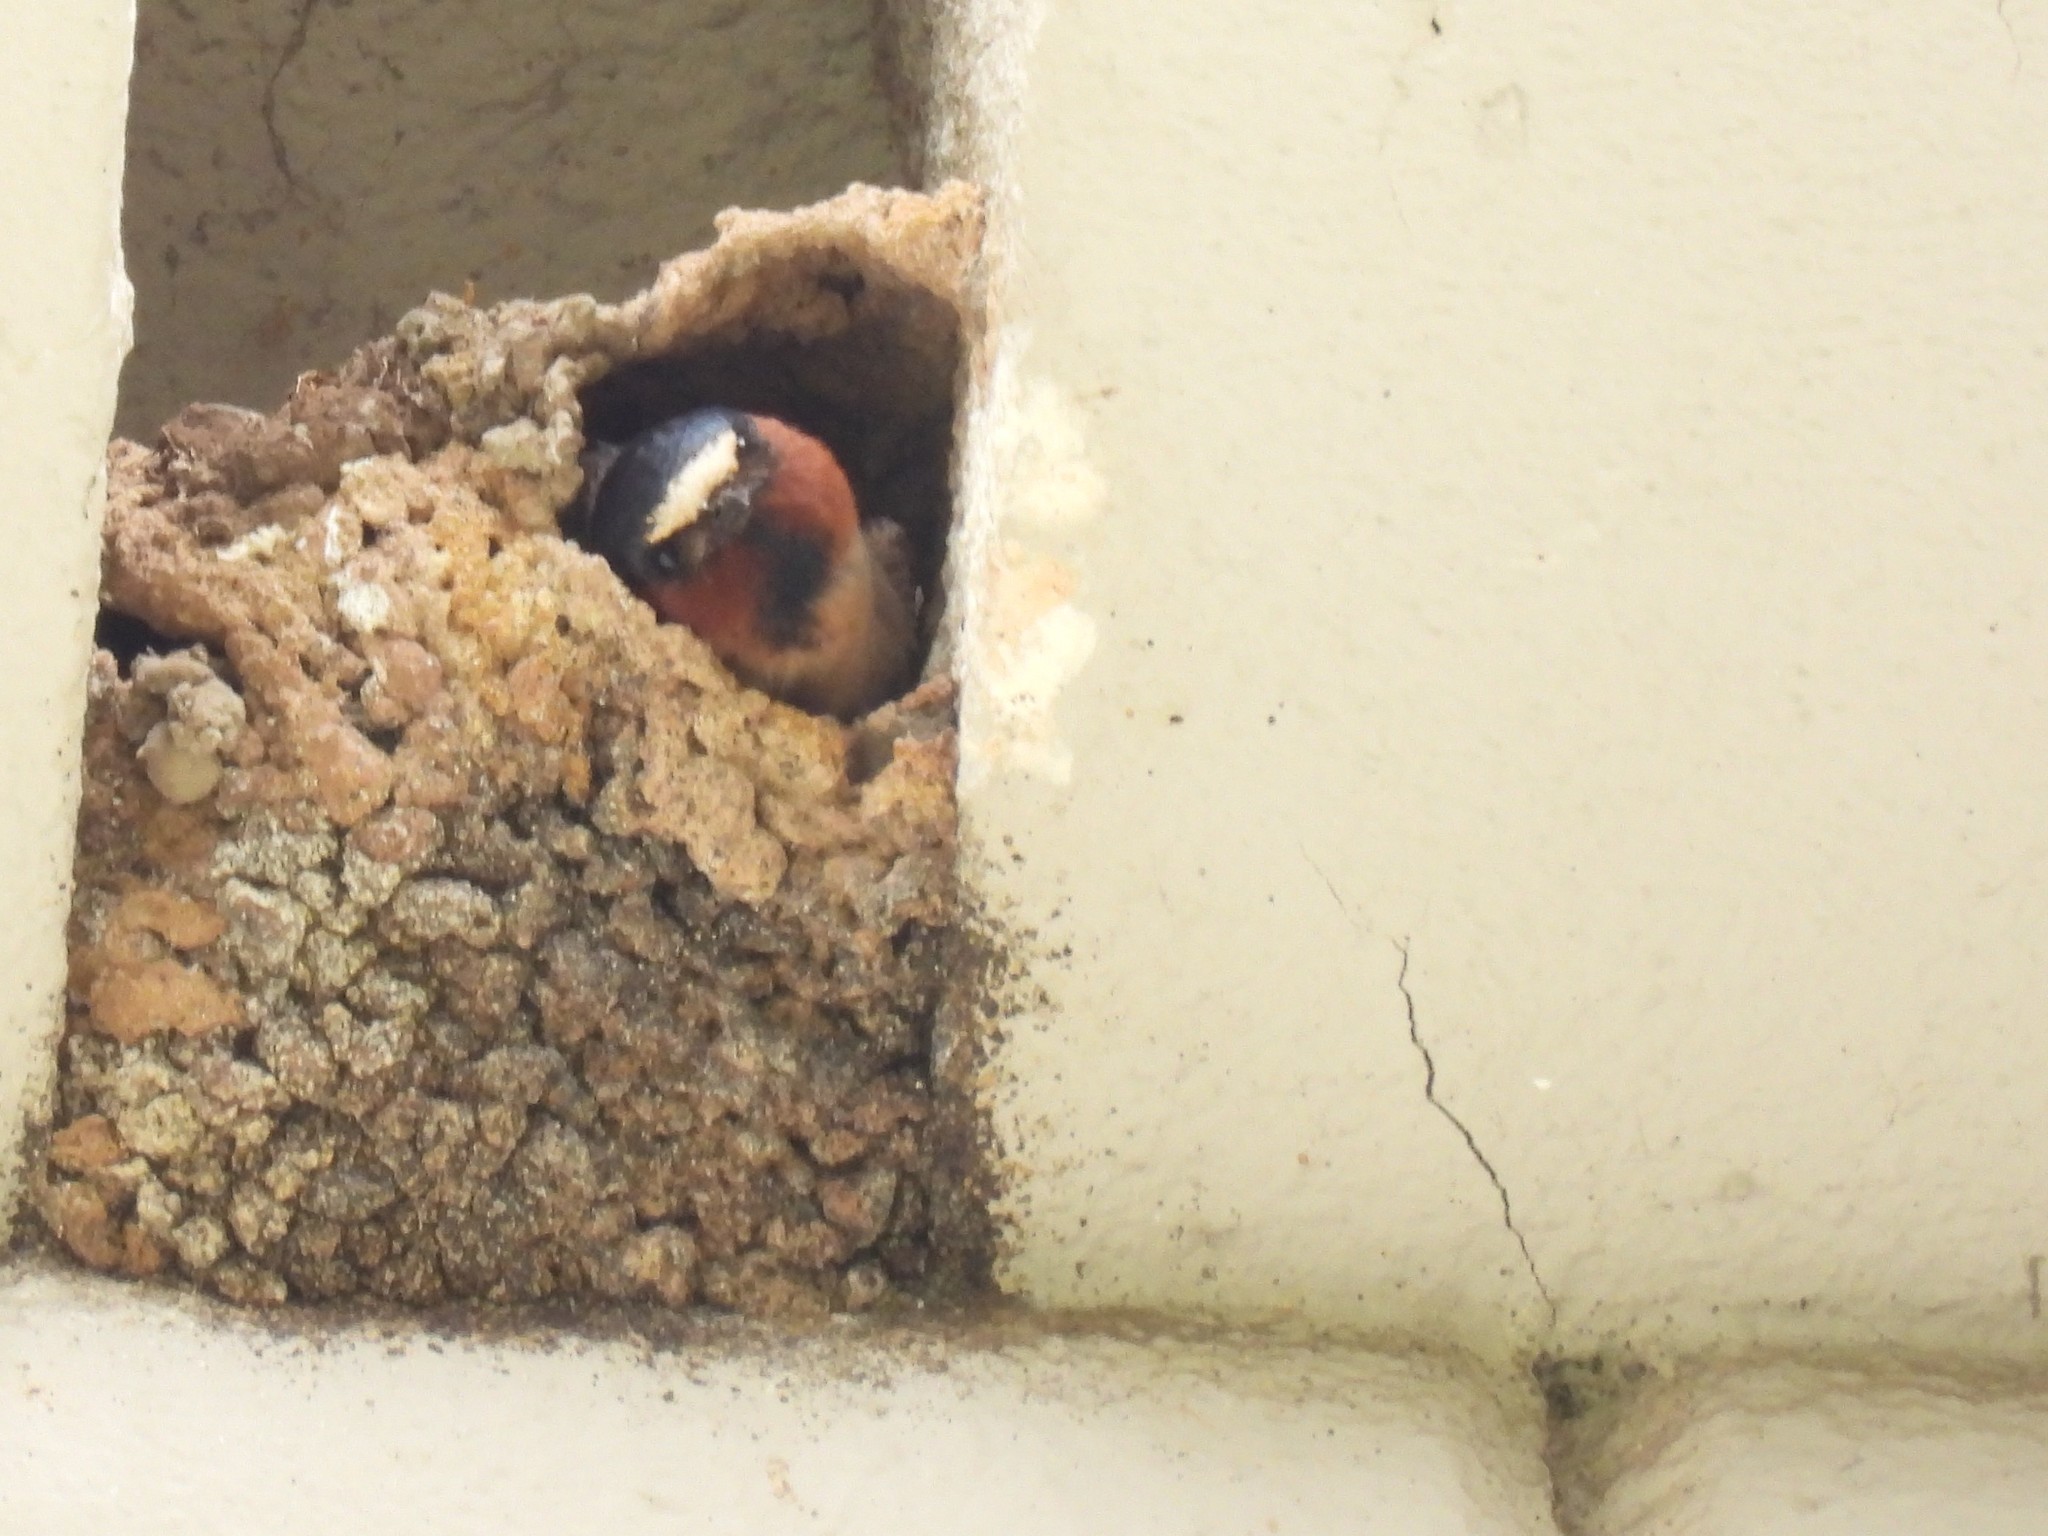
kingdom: Animalia
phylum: Chordata
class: Aves
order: Passeriformes
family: Hirundinidae
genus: Petrochelidon
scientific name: Petrochelidon pyrrhonota
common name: American cliff swallow
